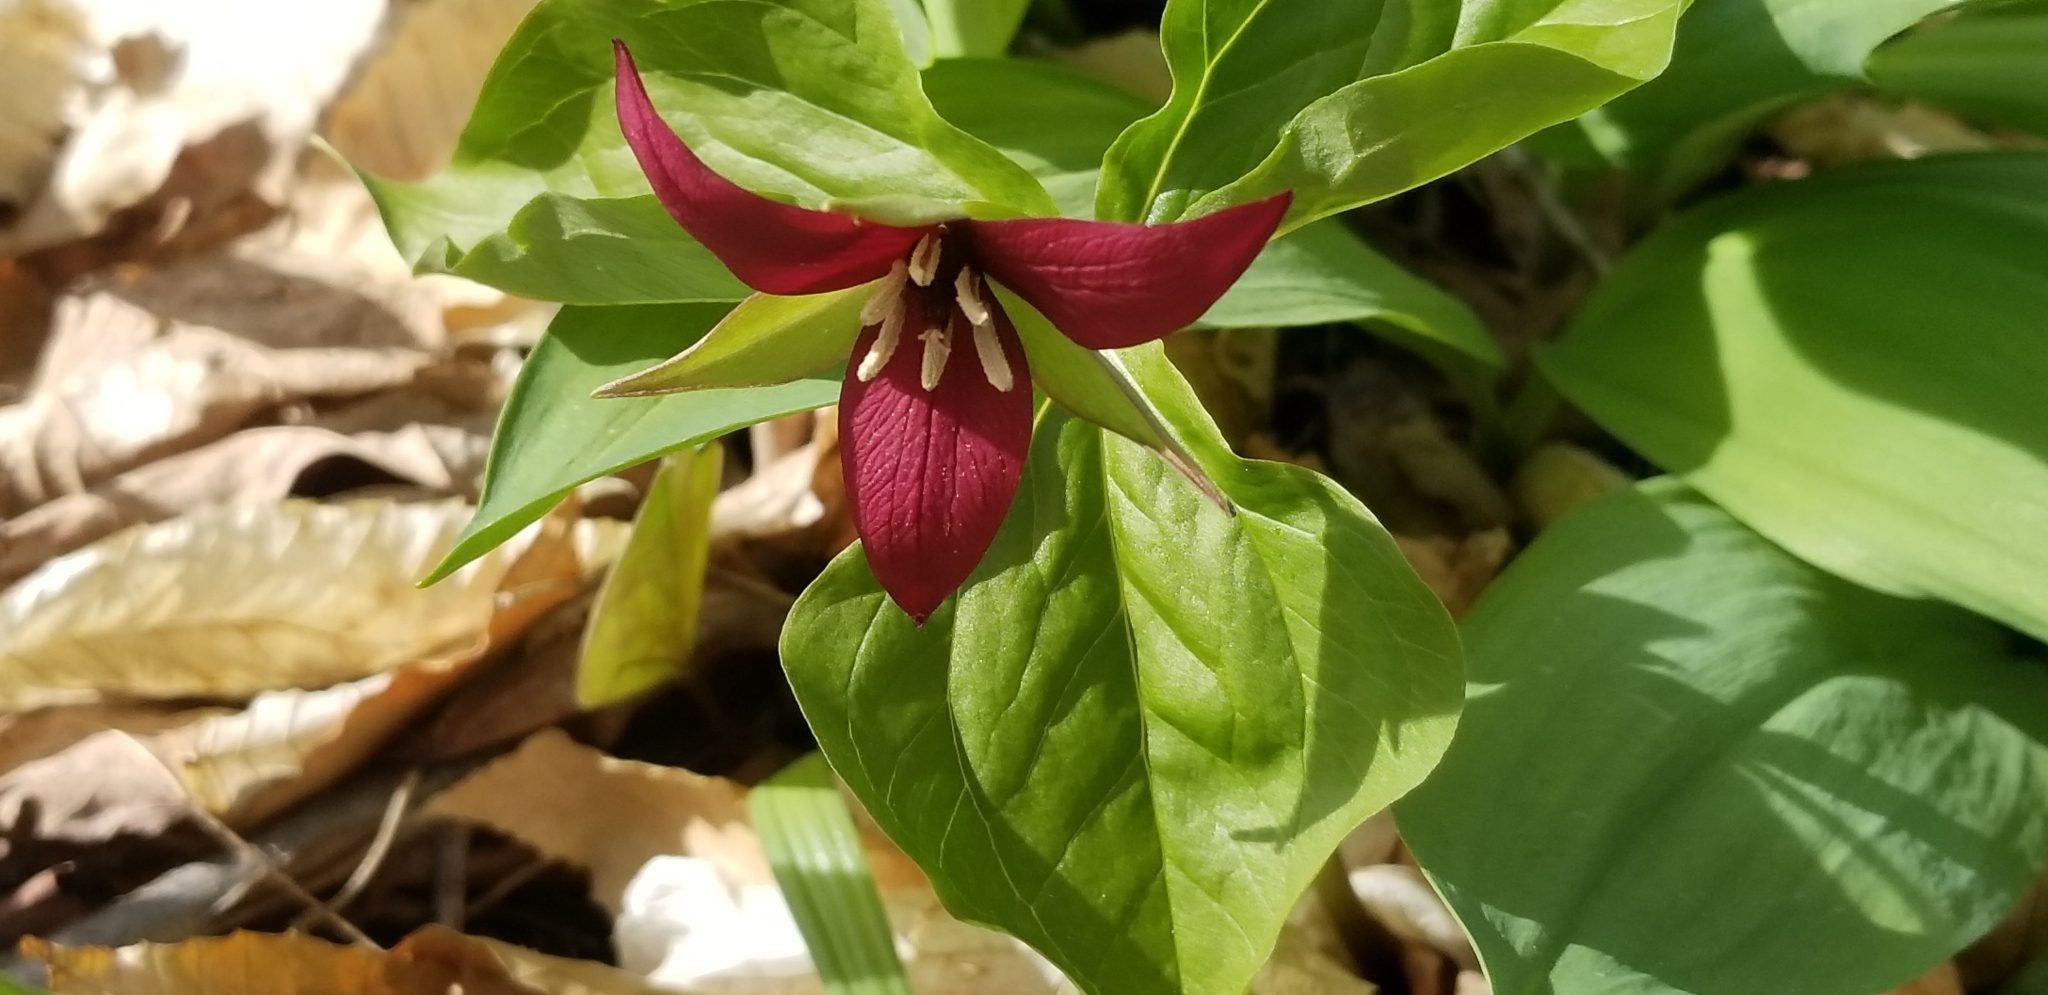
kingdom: Plantae
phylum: Tracheophyta
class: Liliopsida
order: Liliales
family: Melanthiaceae
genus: Trillium
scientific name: Trillium erectum
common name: Purple trillium
